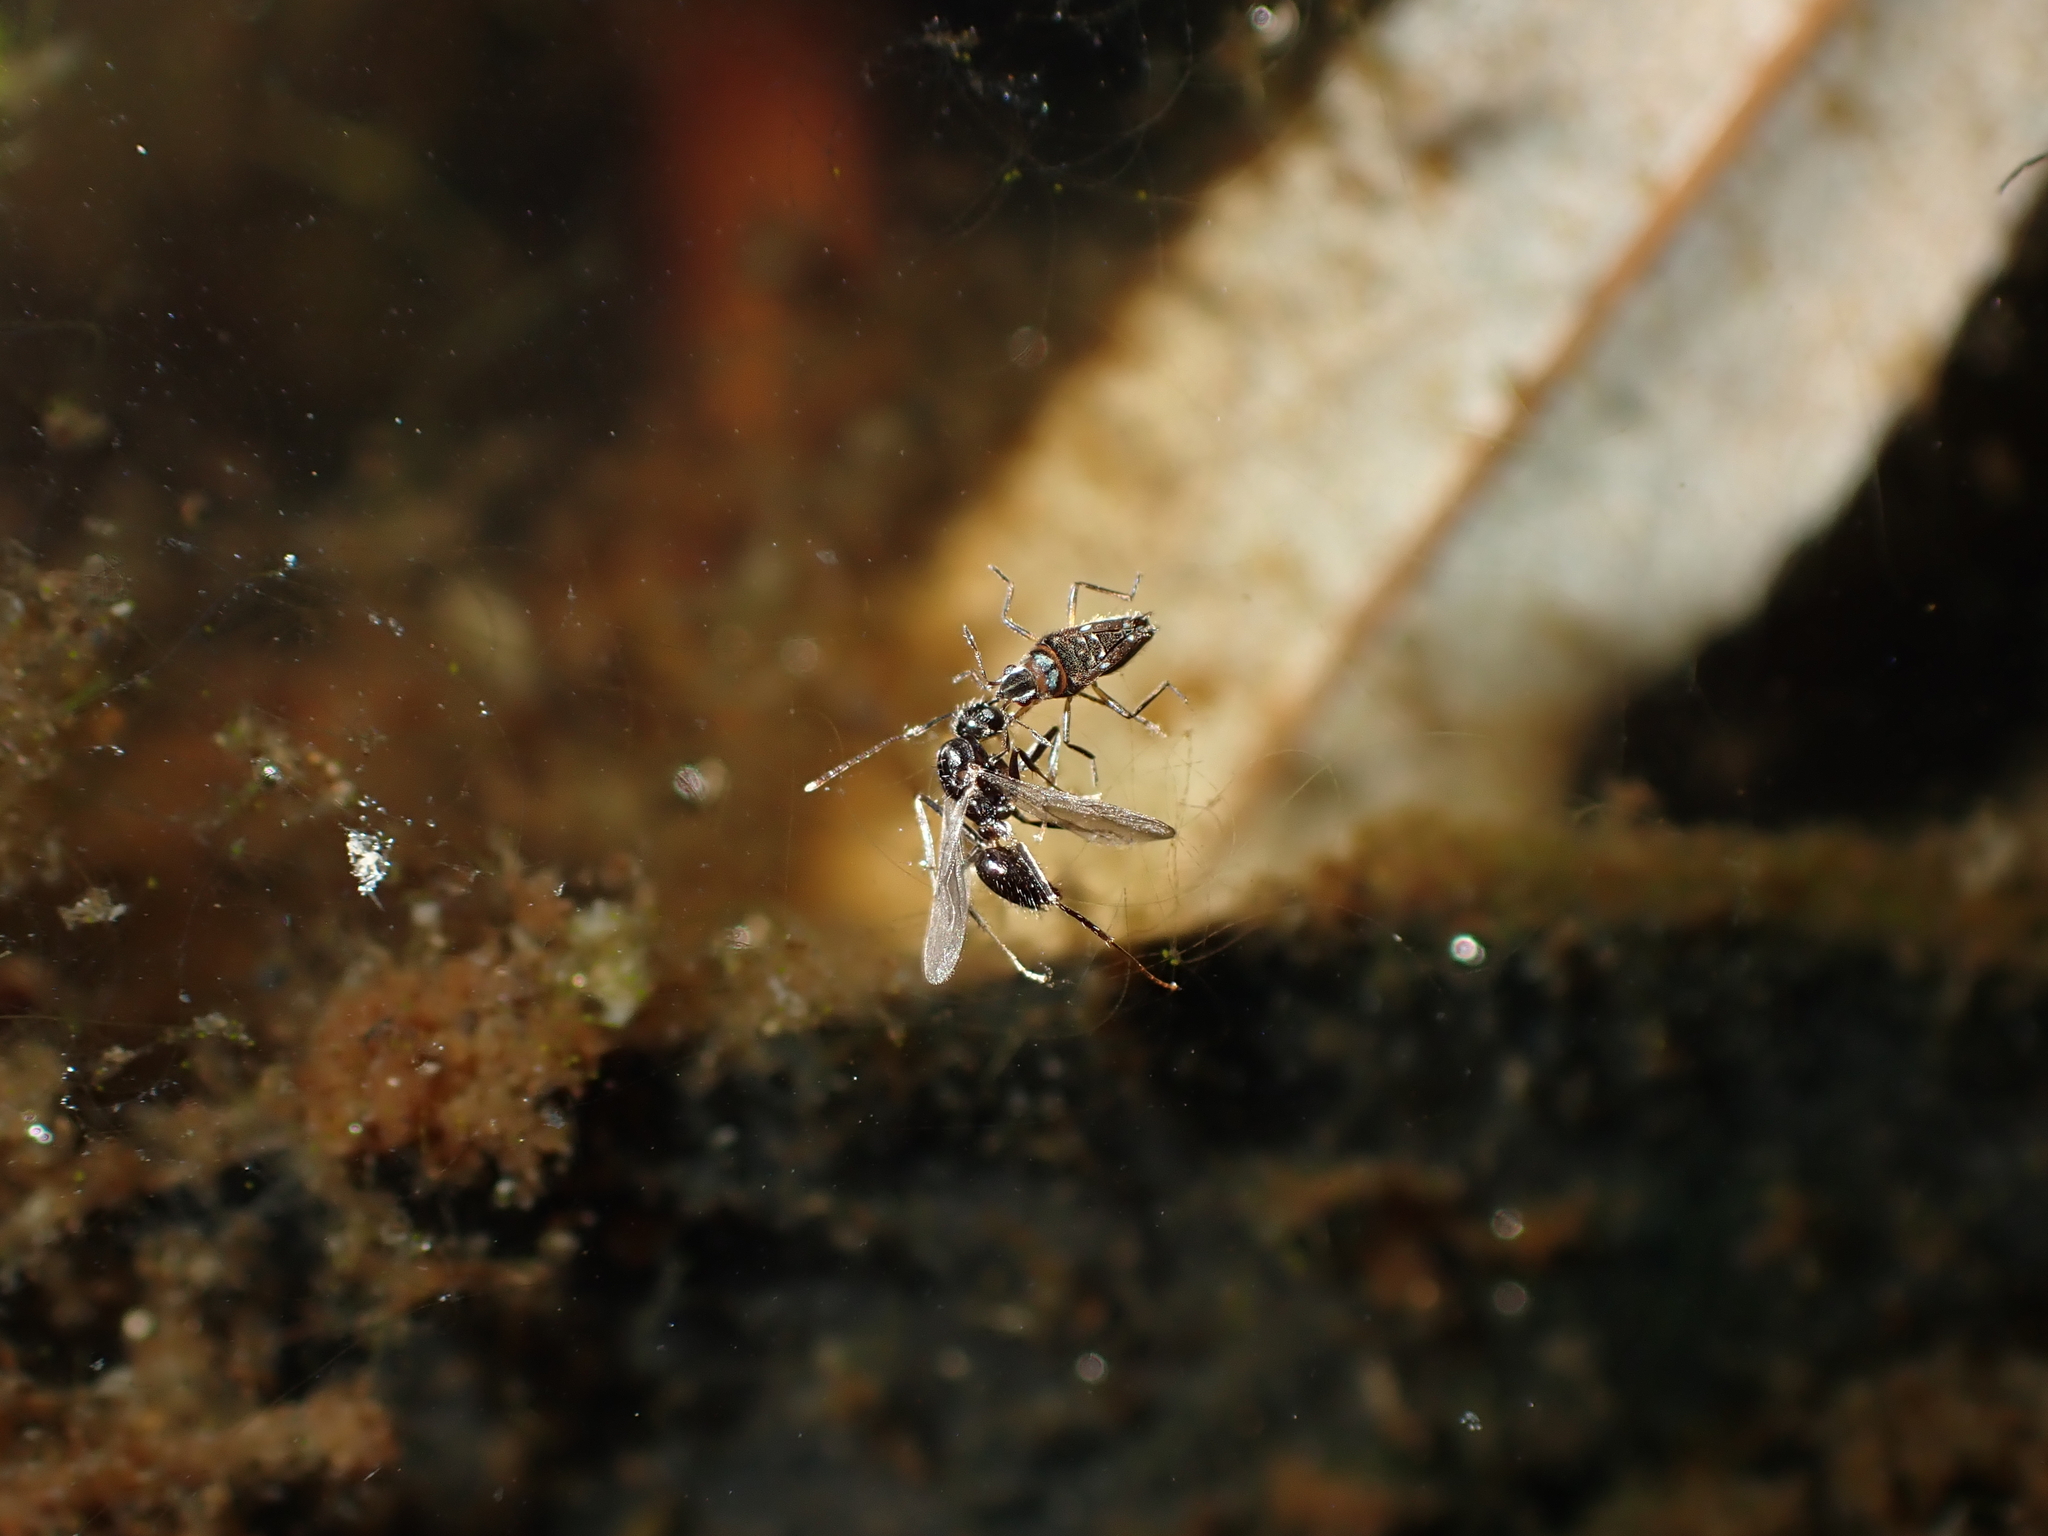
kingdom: Animalia
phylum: Arthropoda
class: Insecta
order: Hemiptera
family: Veliidae
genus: Microvelia
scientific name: Microvelia macgregori
